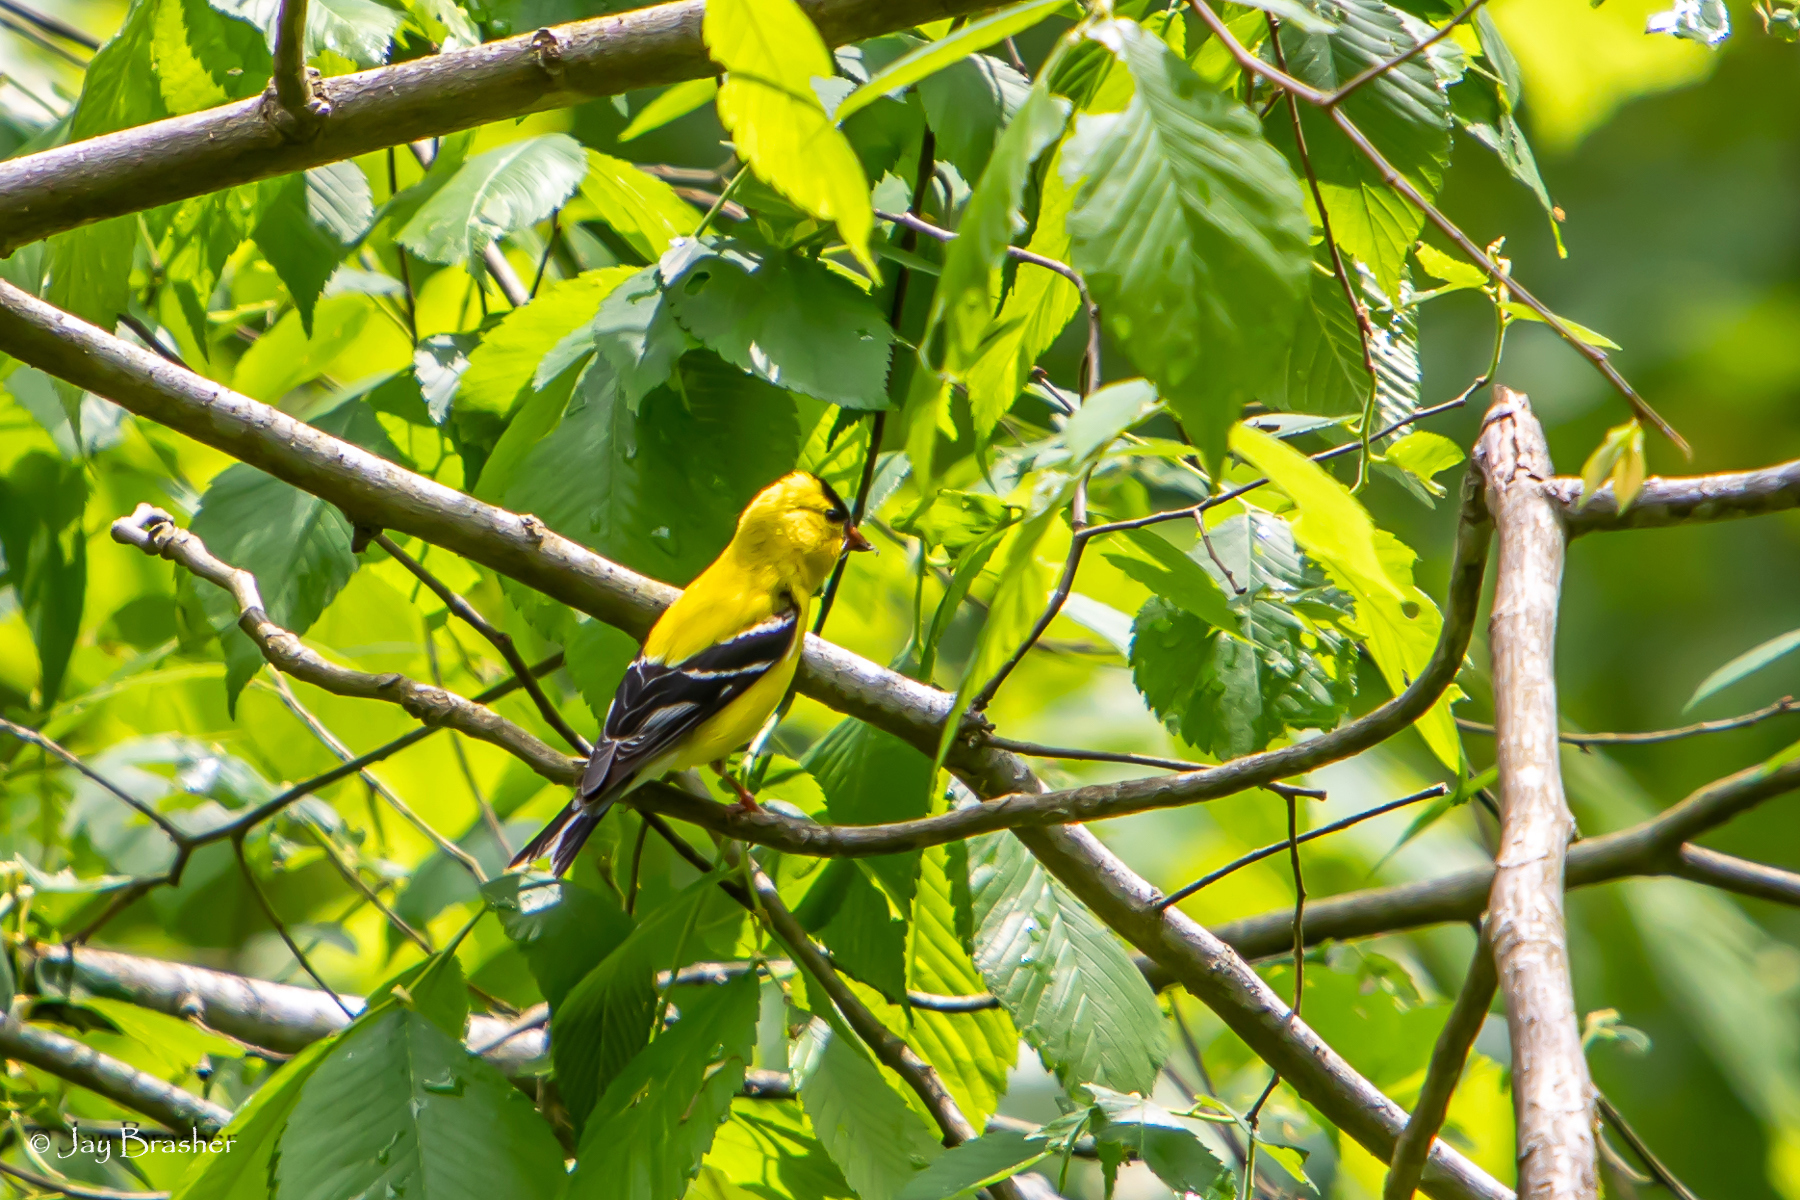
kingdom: Animalia
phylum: Chordata
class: Aves
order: Passeriformes
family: Fringillidae
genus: Spinus
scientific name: Spinus tristis
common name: American goldfinch
